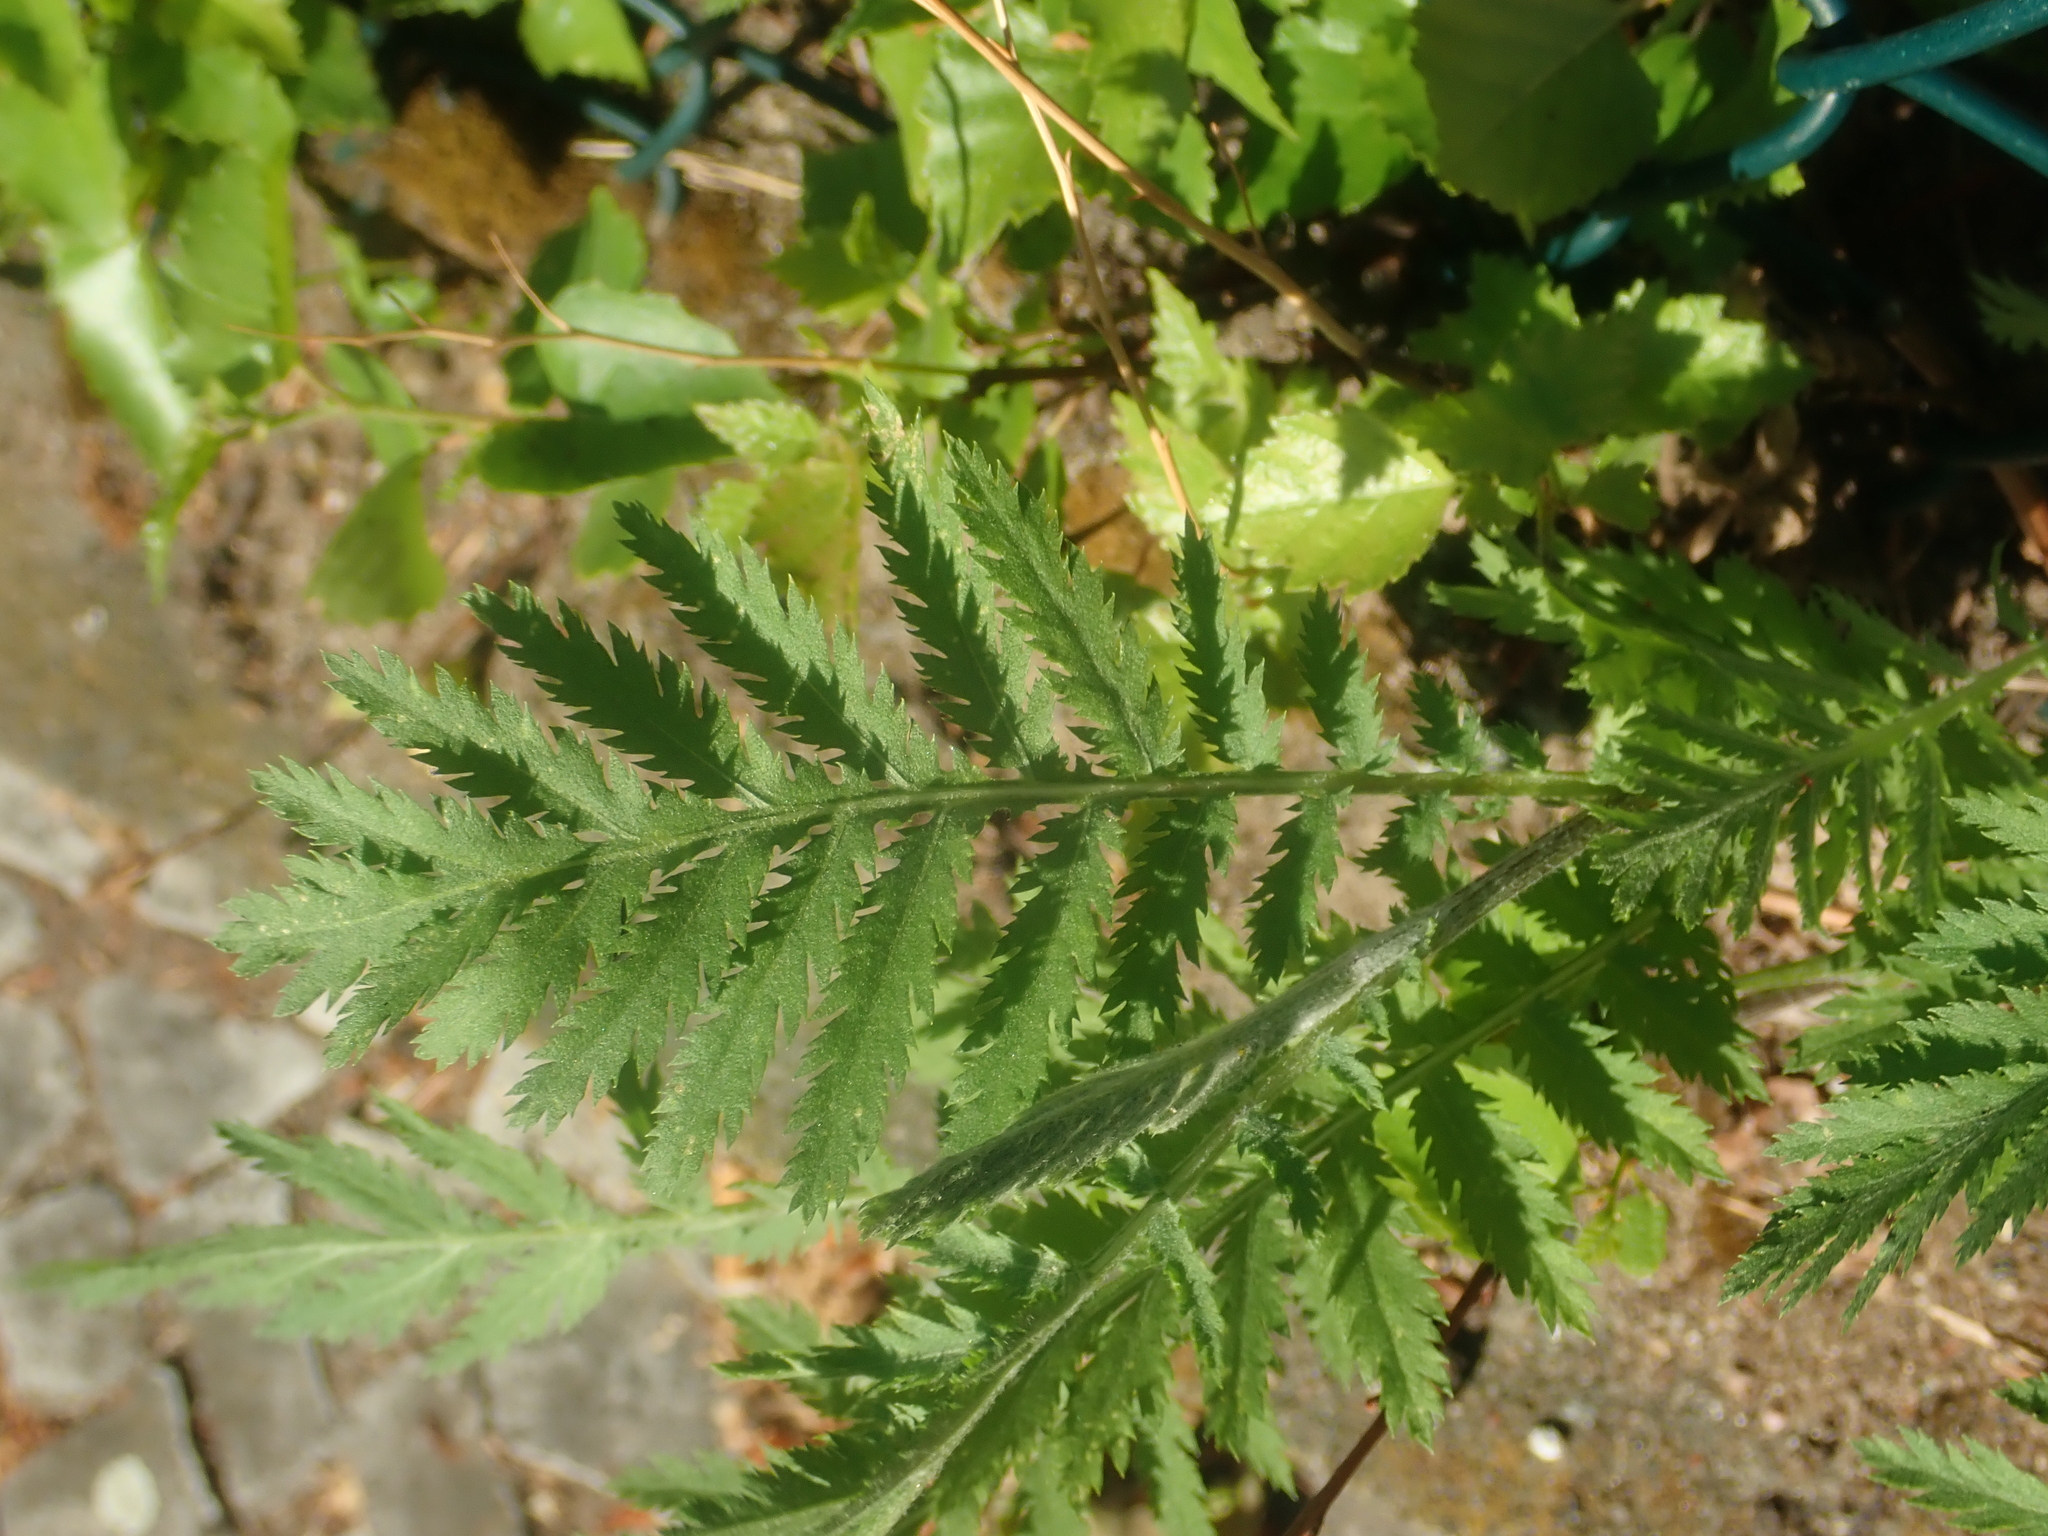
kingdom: Plantae
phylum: Tracheophyta
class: Magnoliopsida
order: Asterales
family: Asteraceae
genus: Tanacetum
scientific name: Tanacetum vulgare
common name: Common tansy
